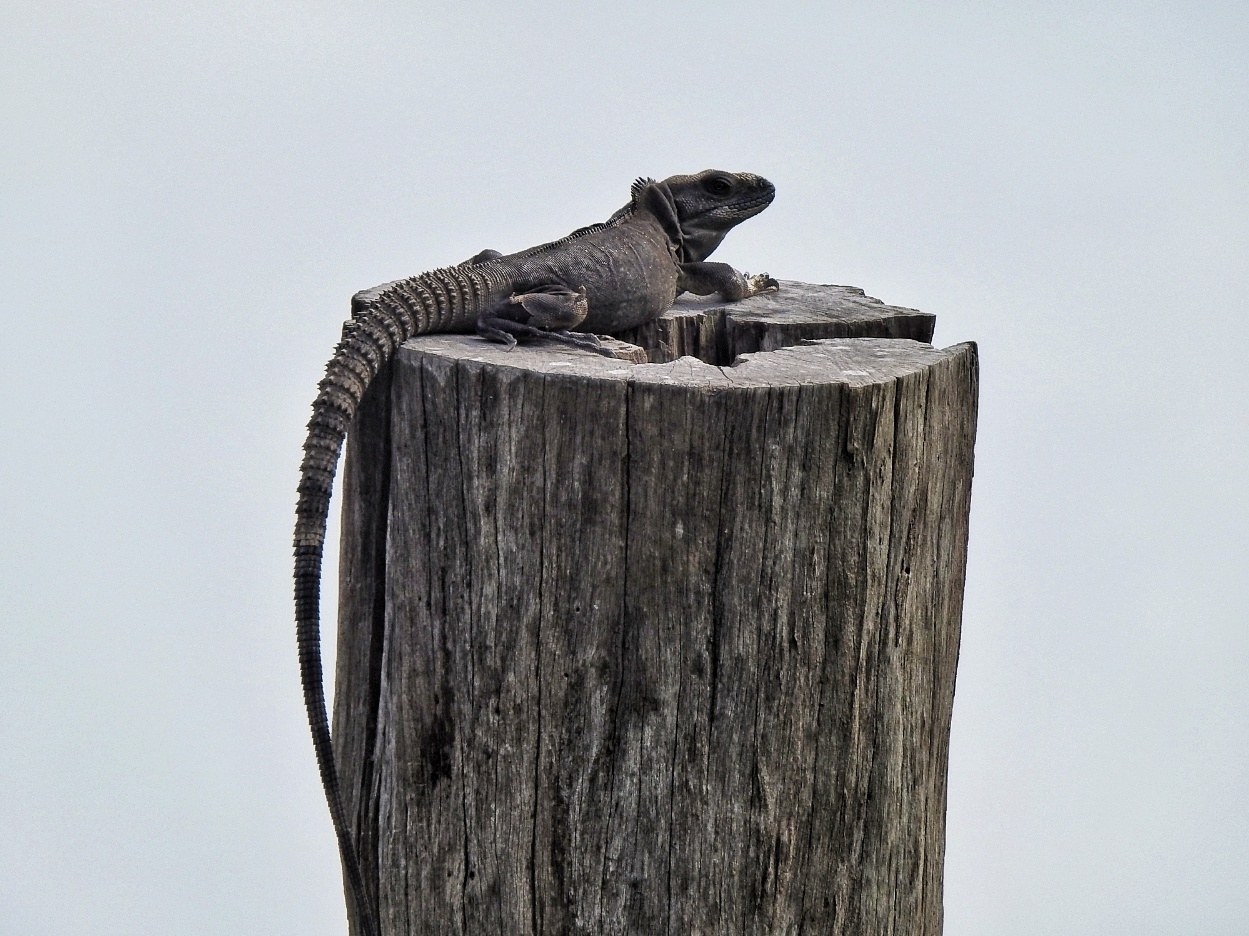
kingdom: Animalia
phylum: Chordata
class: Squamata
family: Iguanidae
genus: Ctenosaura
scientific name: Ctenosaura acanthura
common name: Northeastern spinytail iguana
